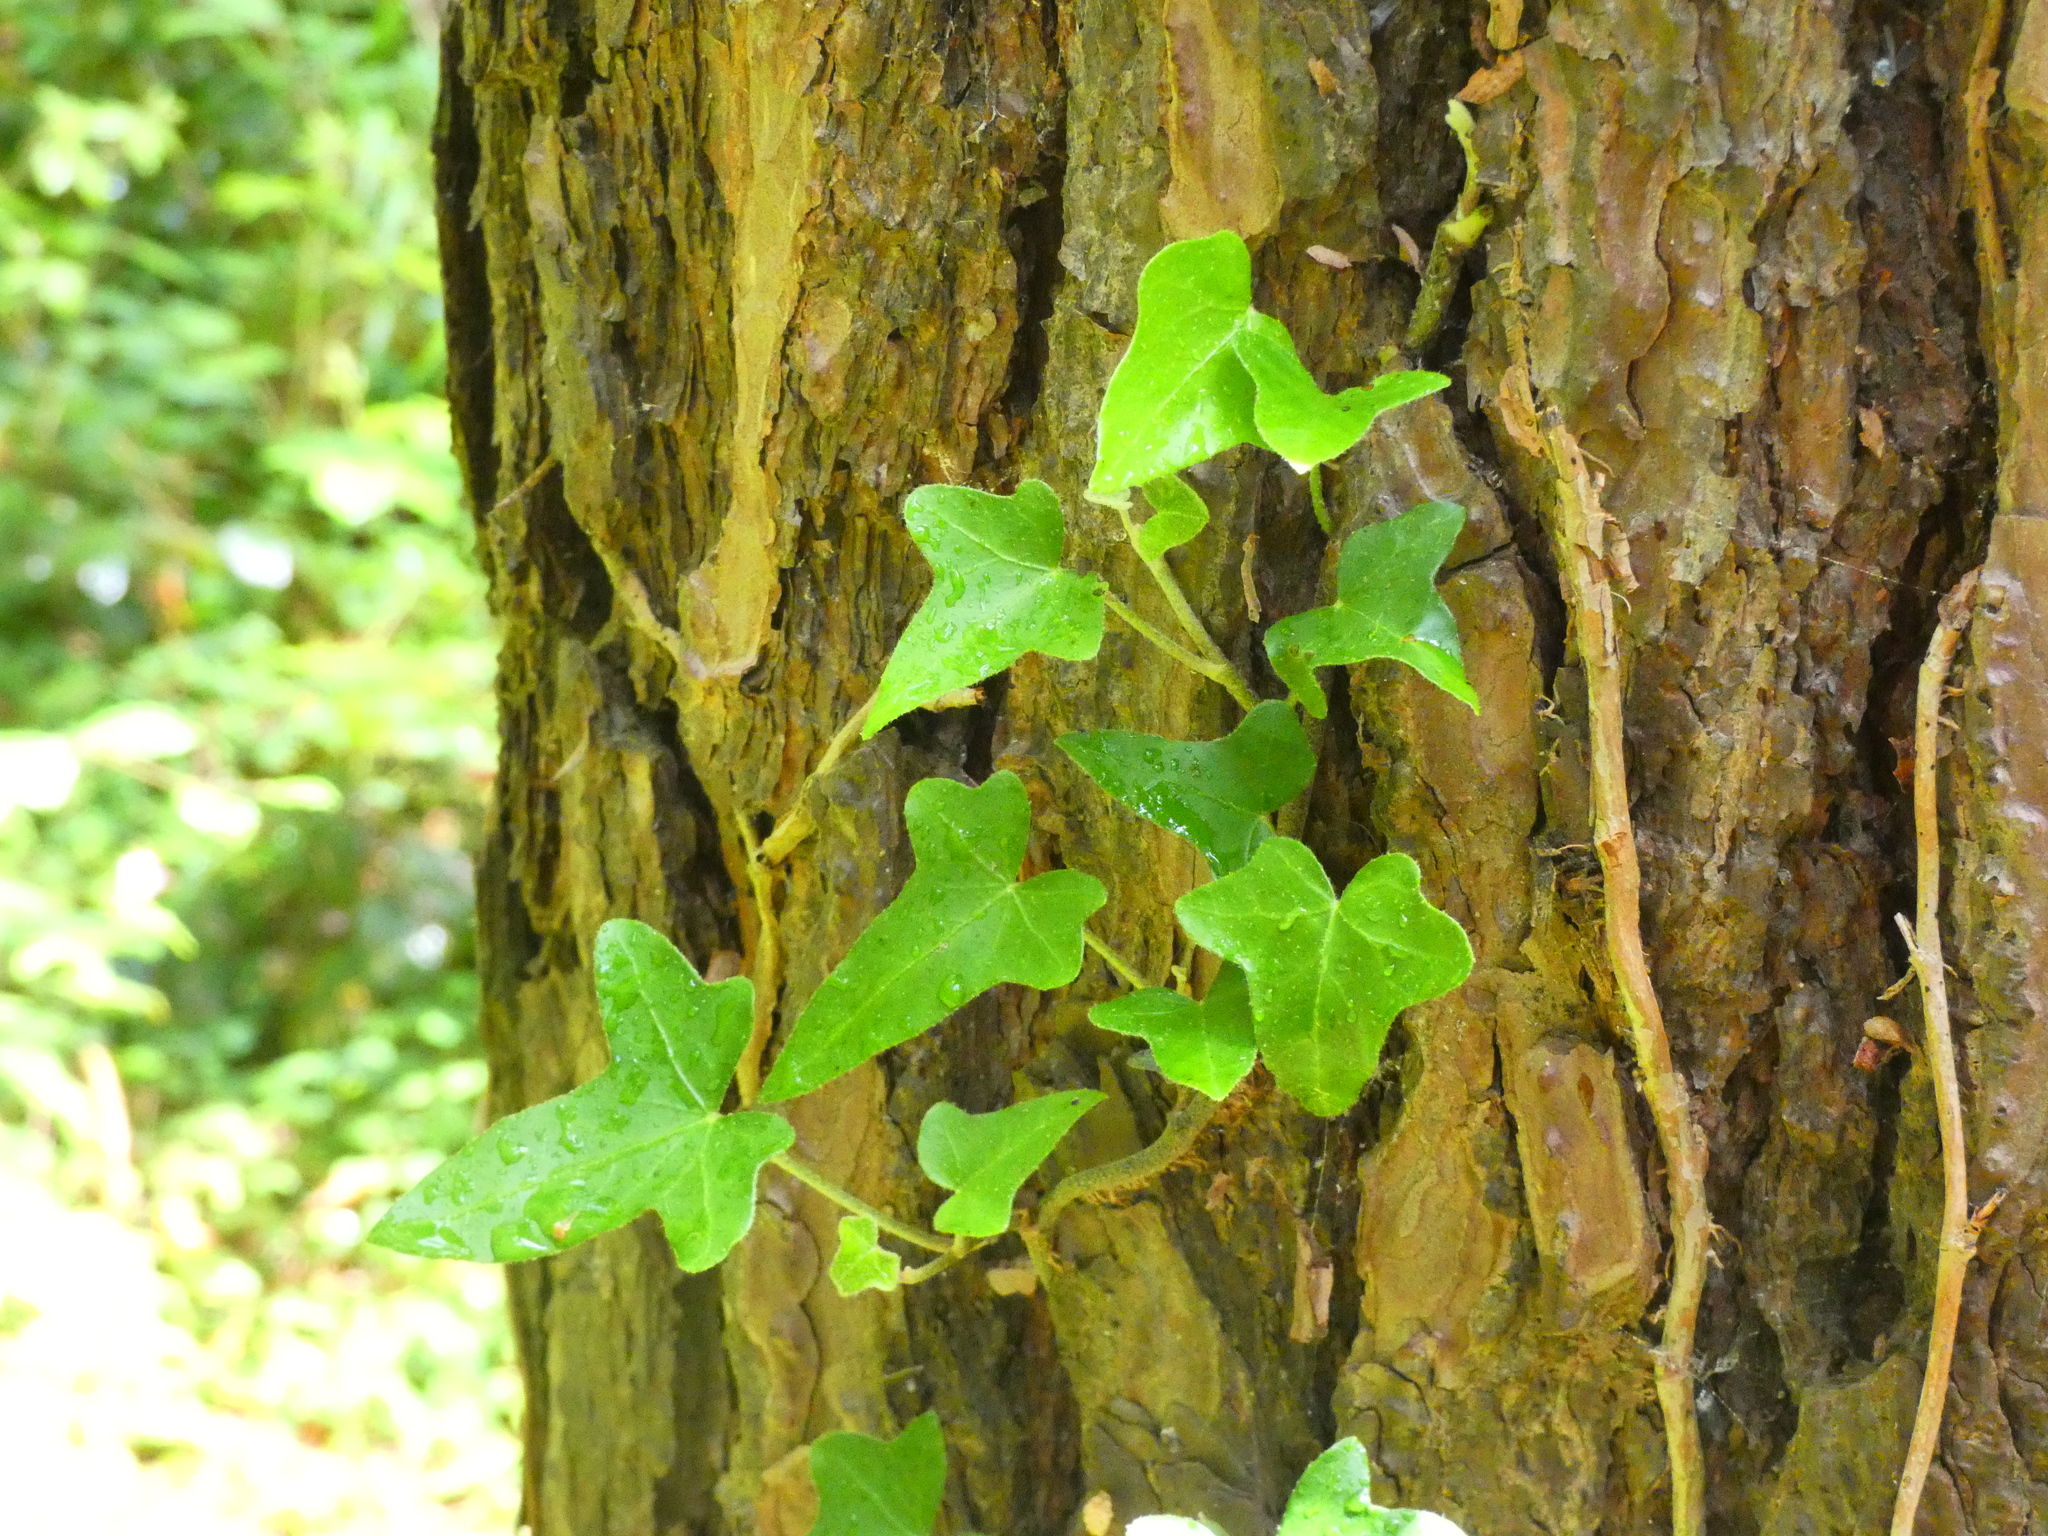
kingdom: Plantae
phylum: Tracheophyta
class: Magnoliopsida
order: Apiales
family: Araliaceae
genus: Hedera
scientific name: Hedera helix
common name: Ivy
